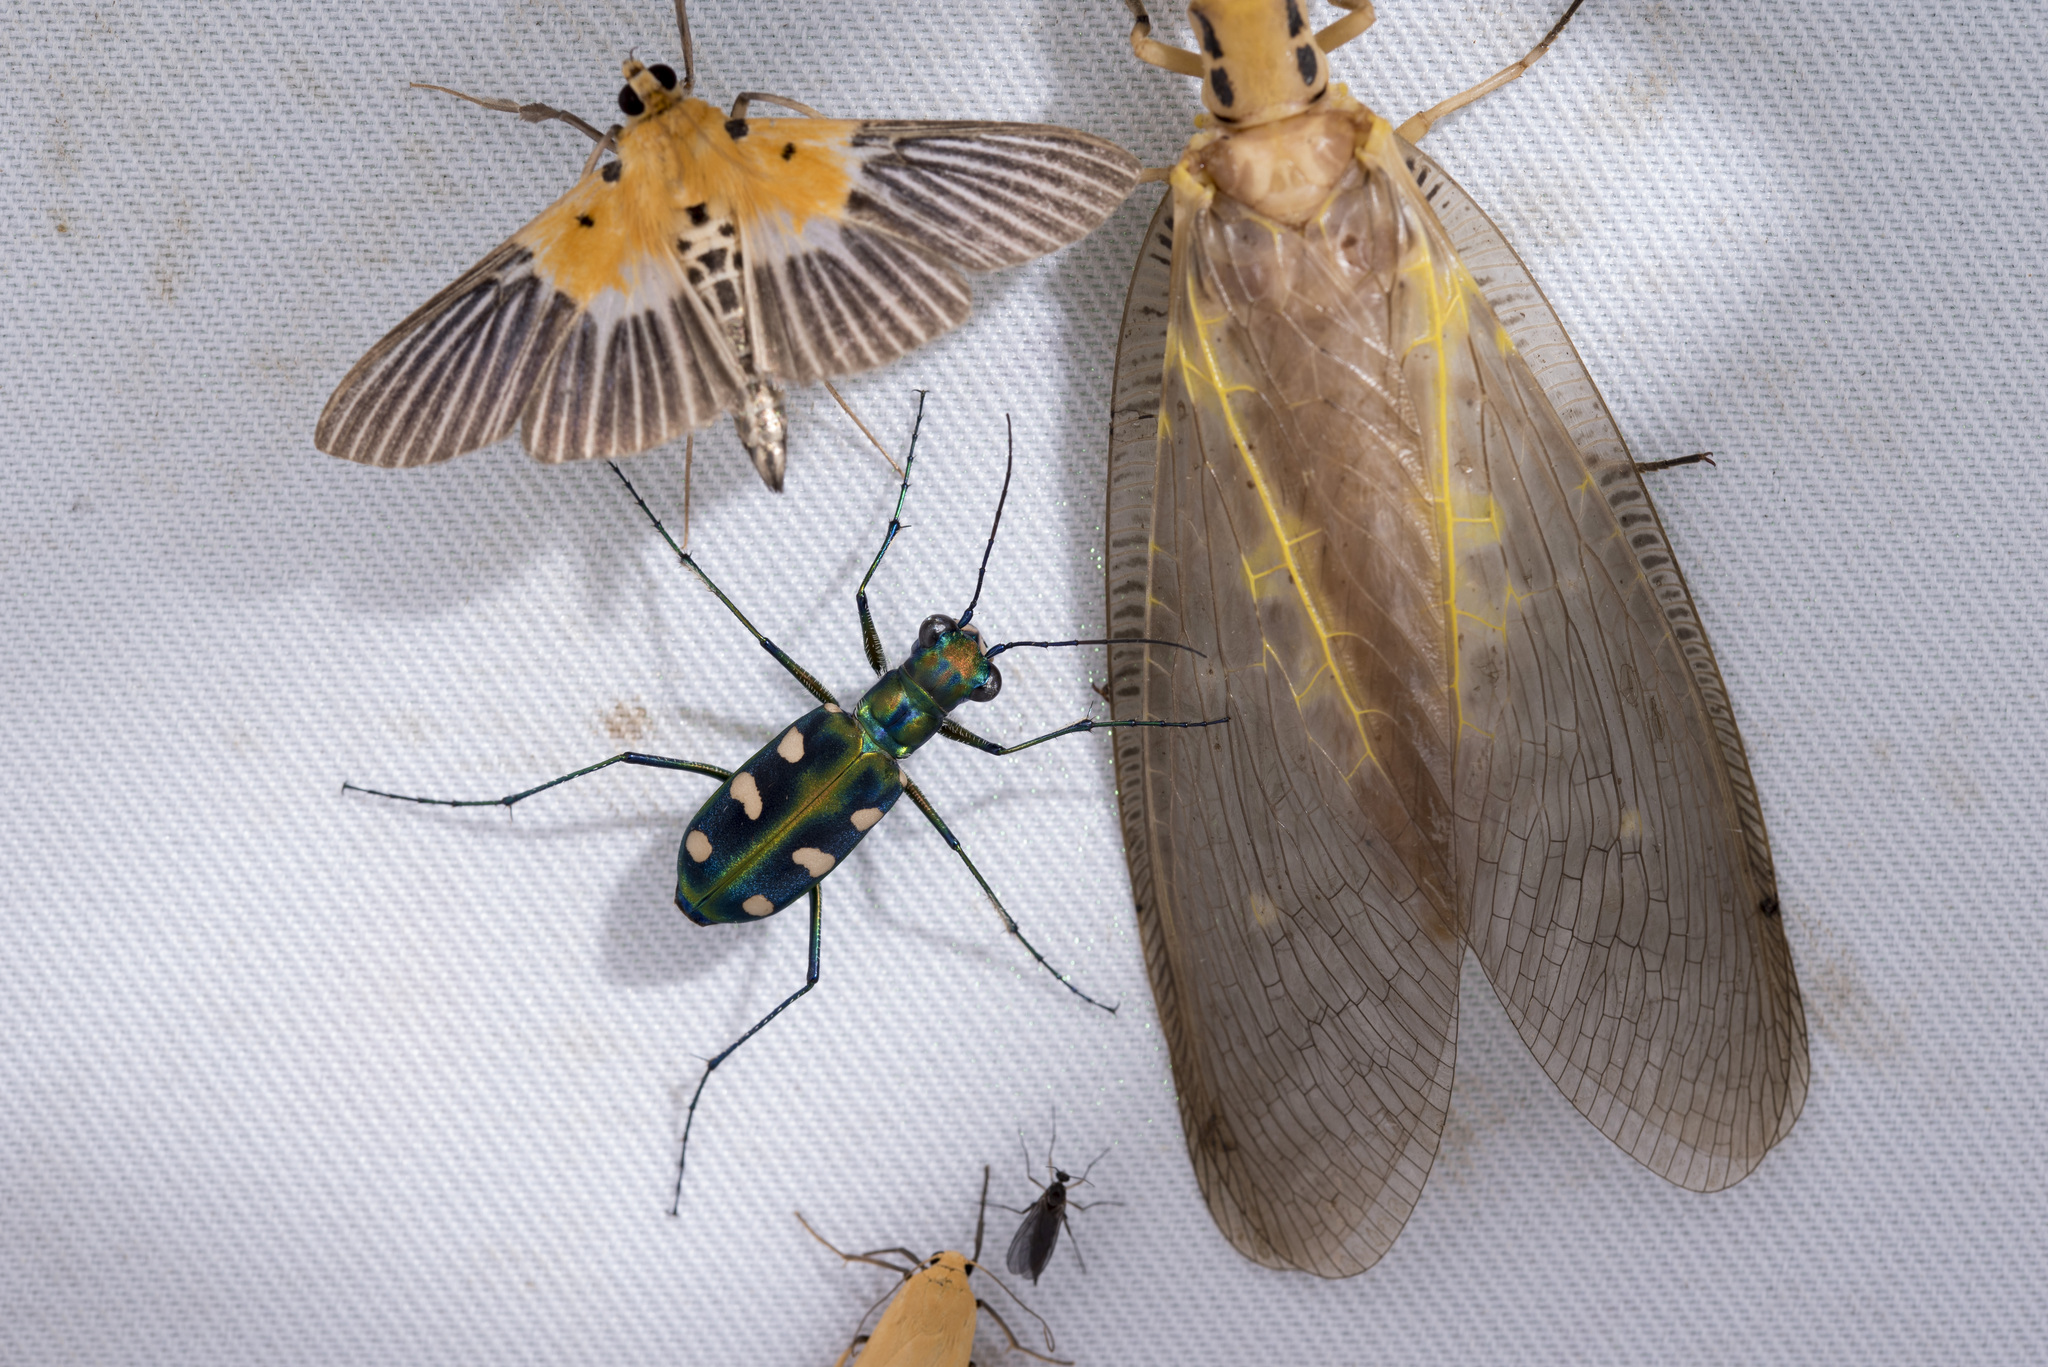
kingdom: Animalia
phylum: Arthropoda
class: Insecta
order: Coleoptera
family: Carabidae
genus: Cicindela
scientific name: Cicindela batesi
